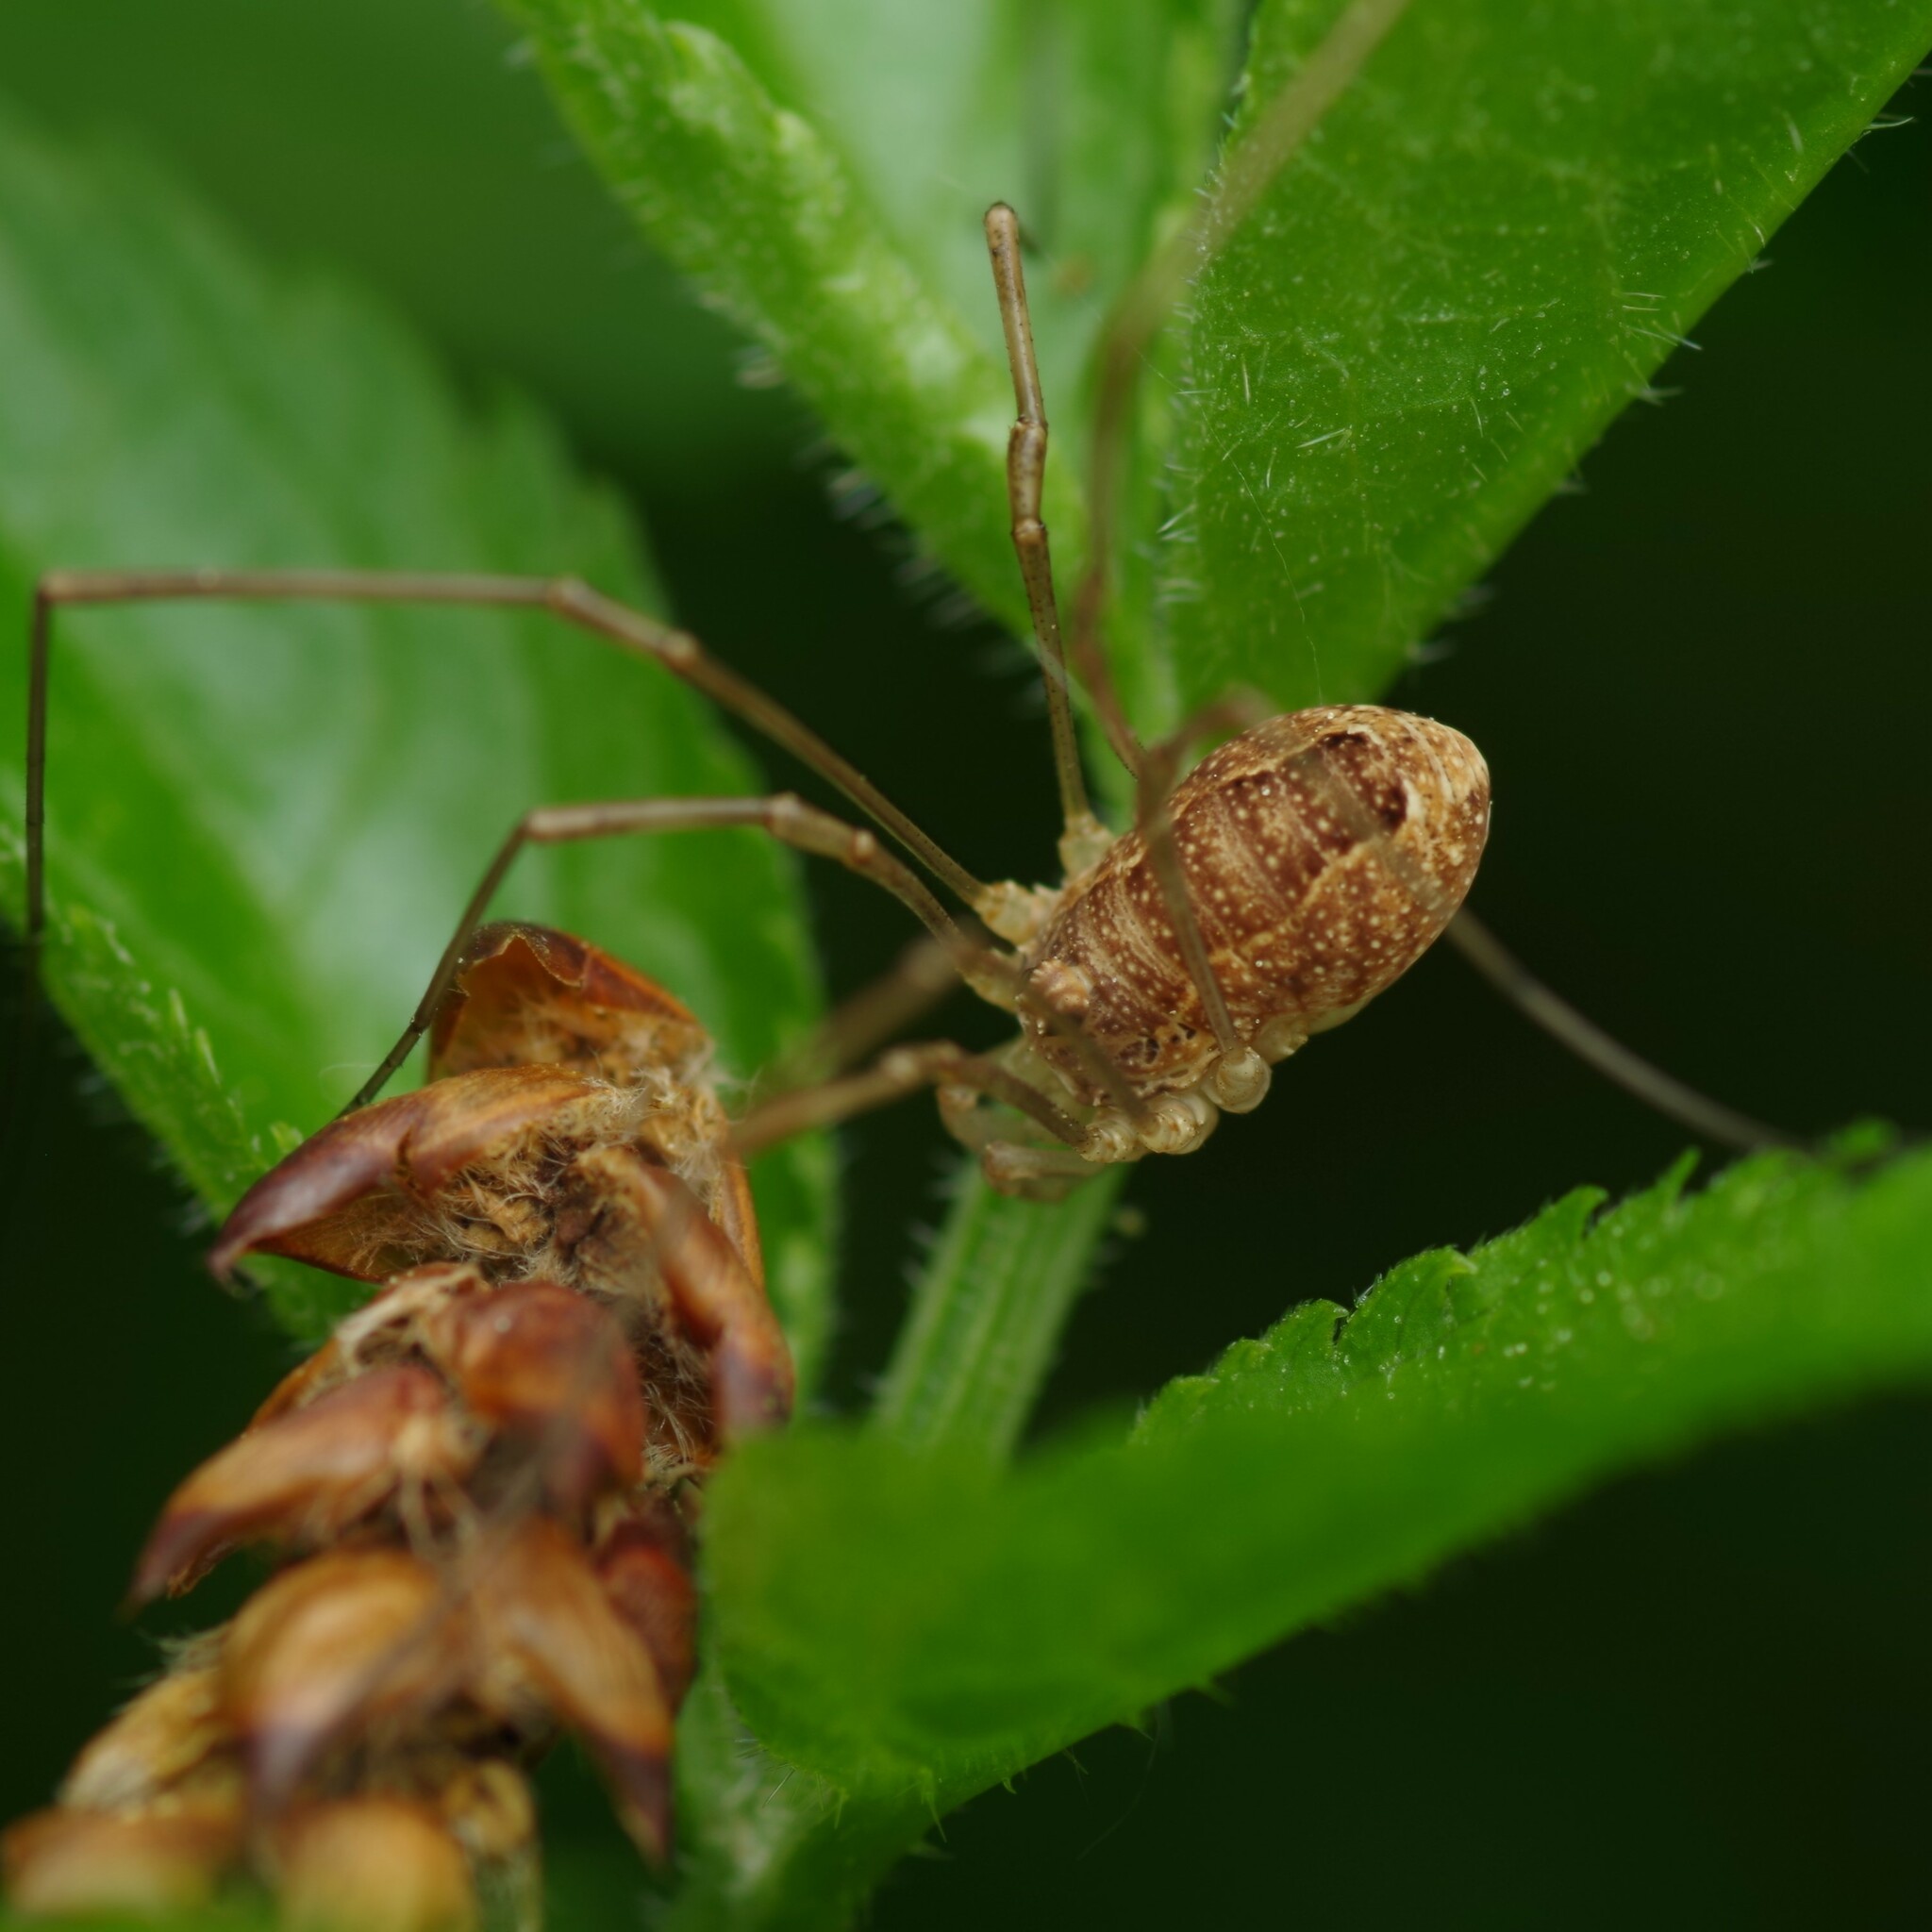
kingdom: Animalia
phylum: Arthropoda
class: Arachnida
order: Opiliones
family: Phalangiidae
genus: Rilaena
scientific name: Rilaena triangularis
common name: Spring harvestman
